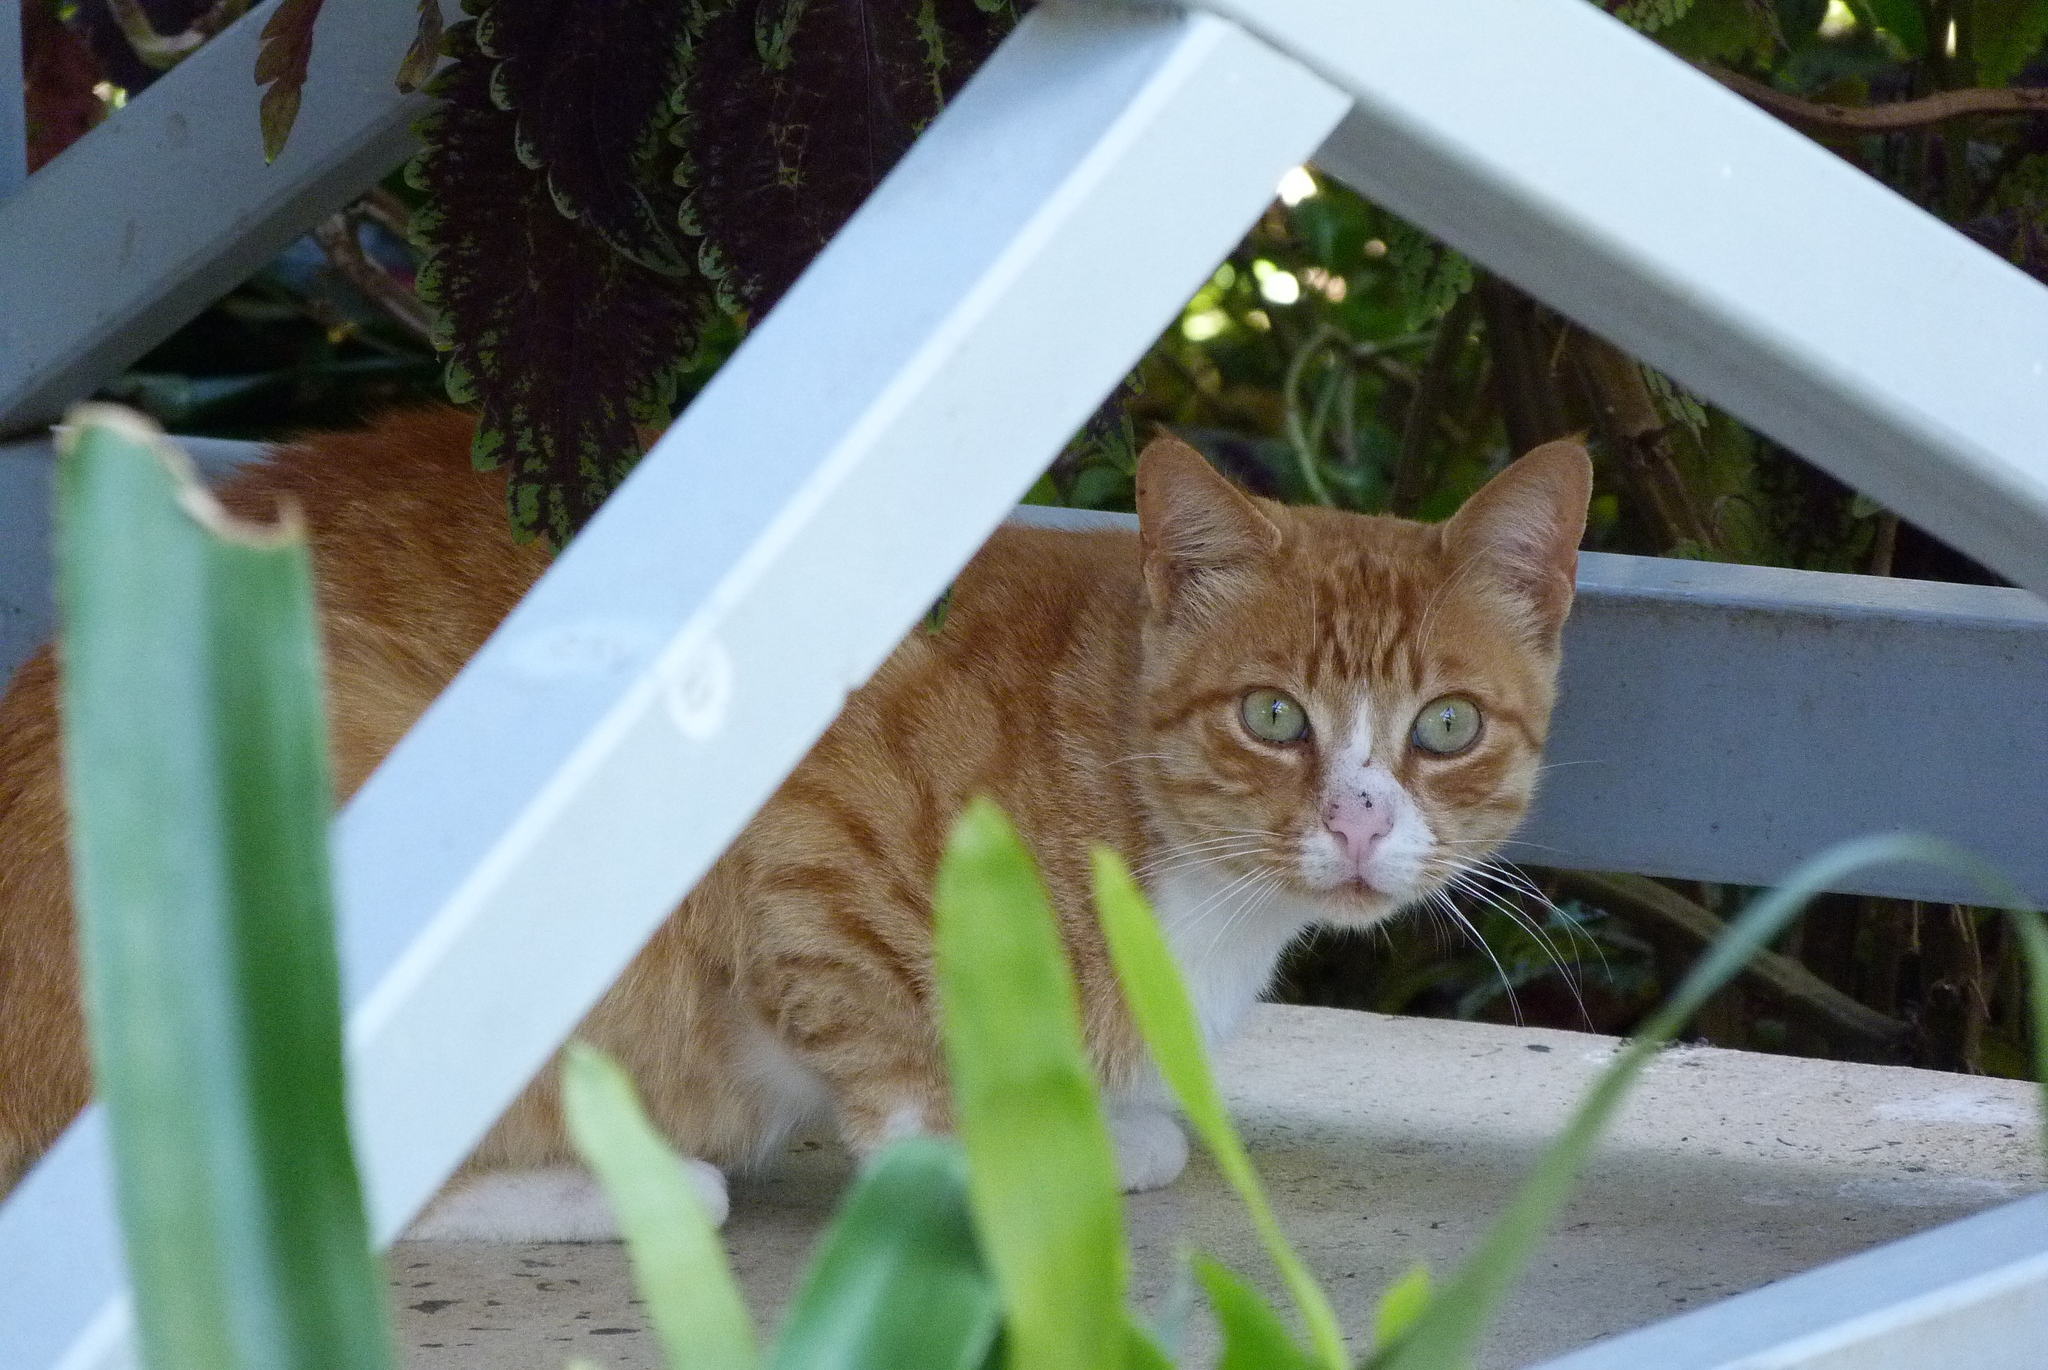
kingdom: Animalia
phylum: Chordata
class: Mammalia
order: Carnivora
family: Felidae
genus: Felis
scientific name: Felis catus
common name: Domestic cat
